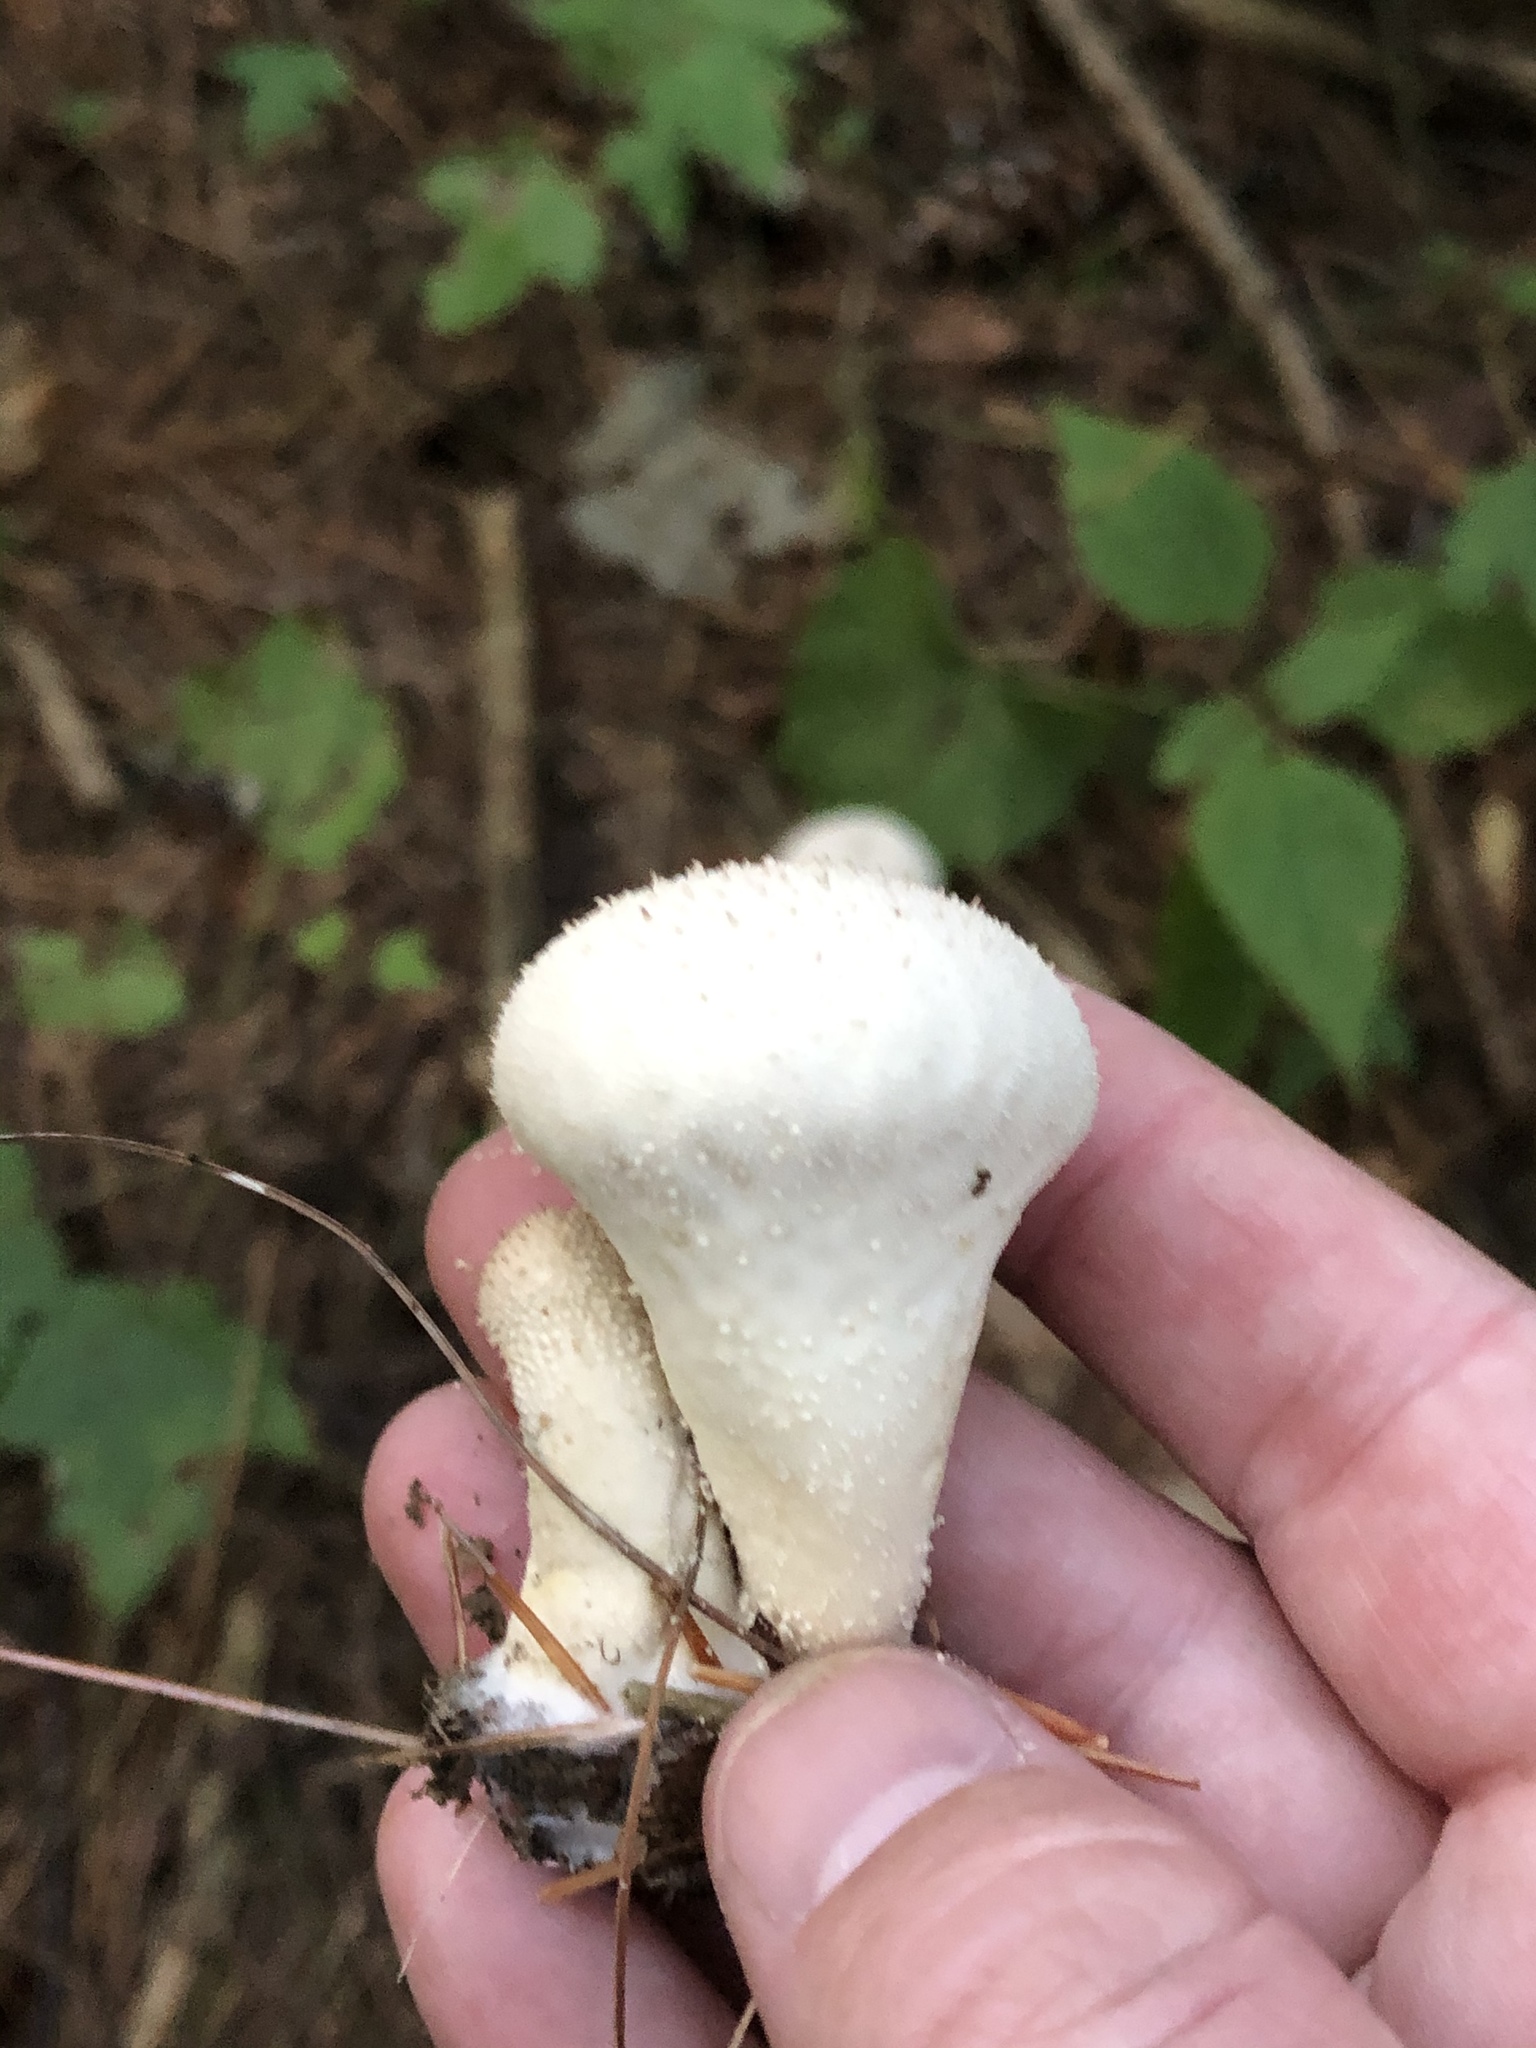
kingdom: Fungi
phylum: Basidiomycota
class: Agaricomycetes
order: Agaricales
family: Lycoperdaceae
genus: Lycoperdon
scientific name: Lycoperdon perlatum
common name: Common puffball
